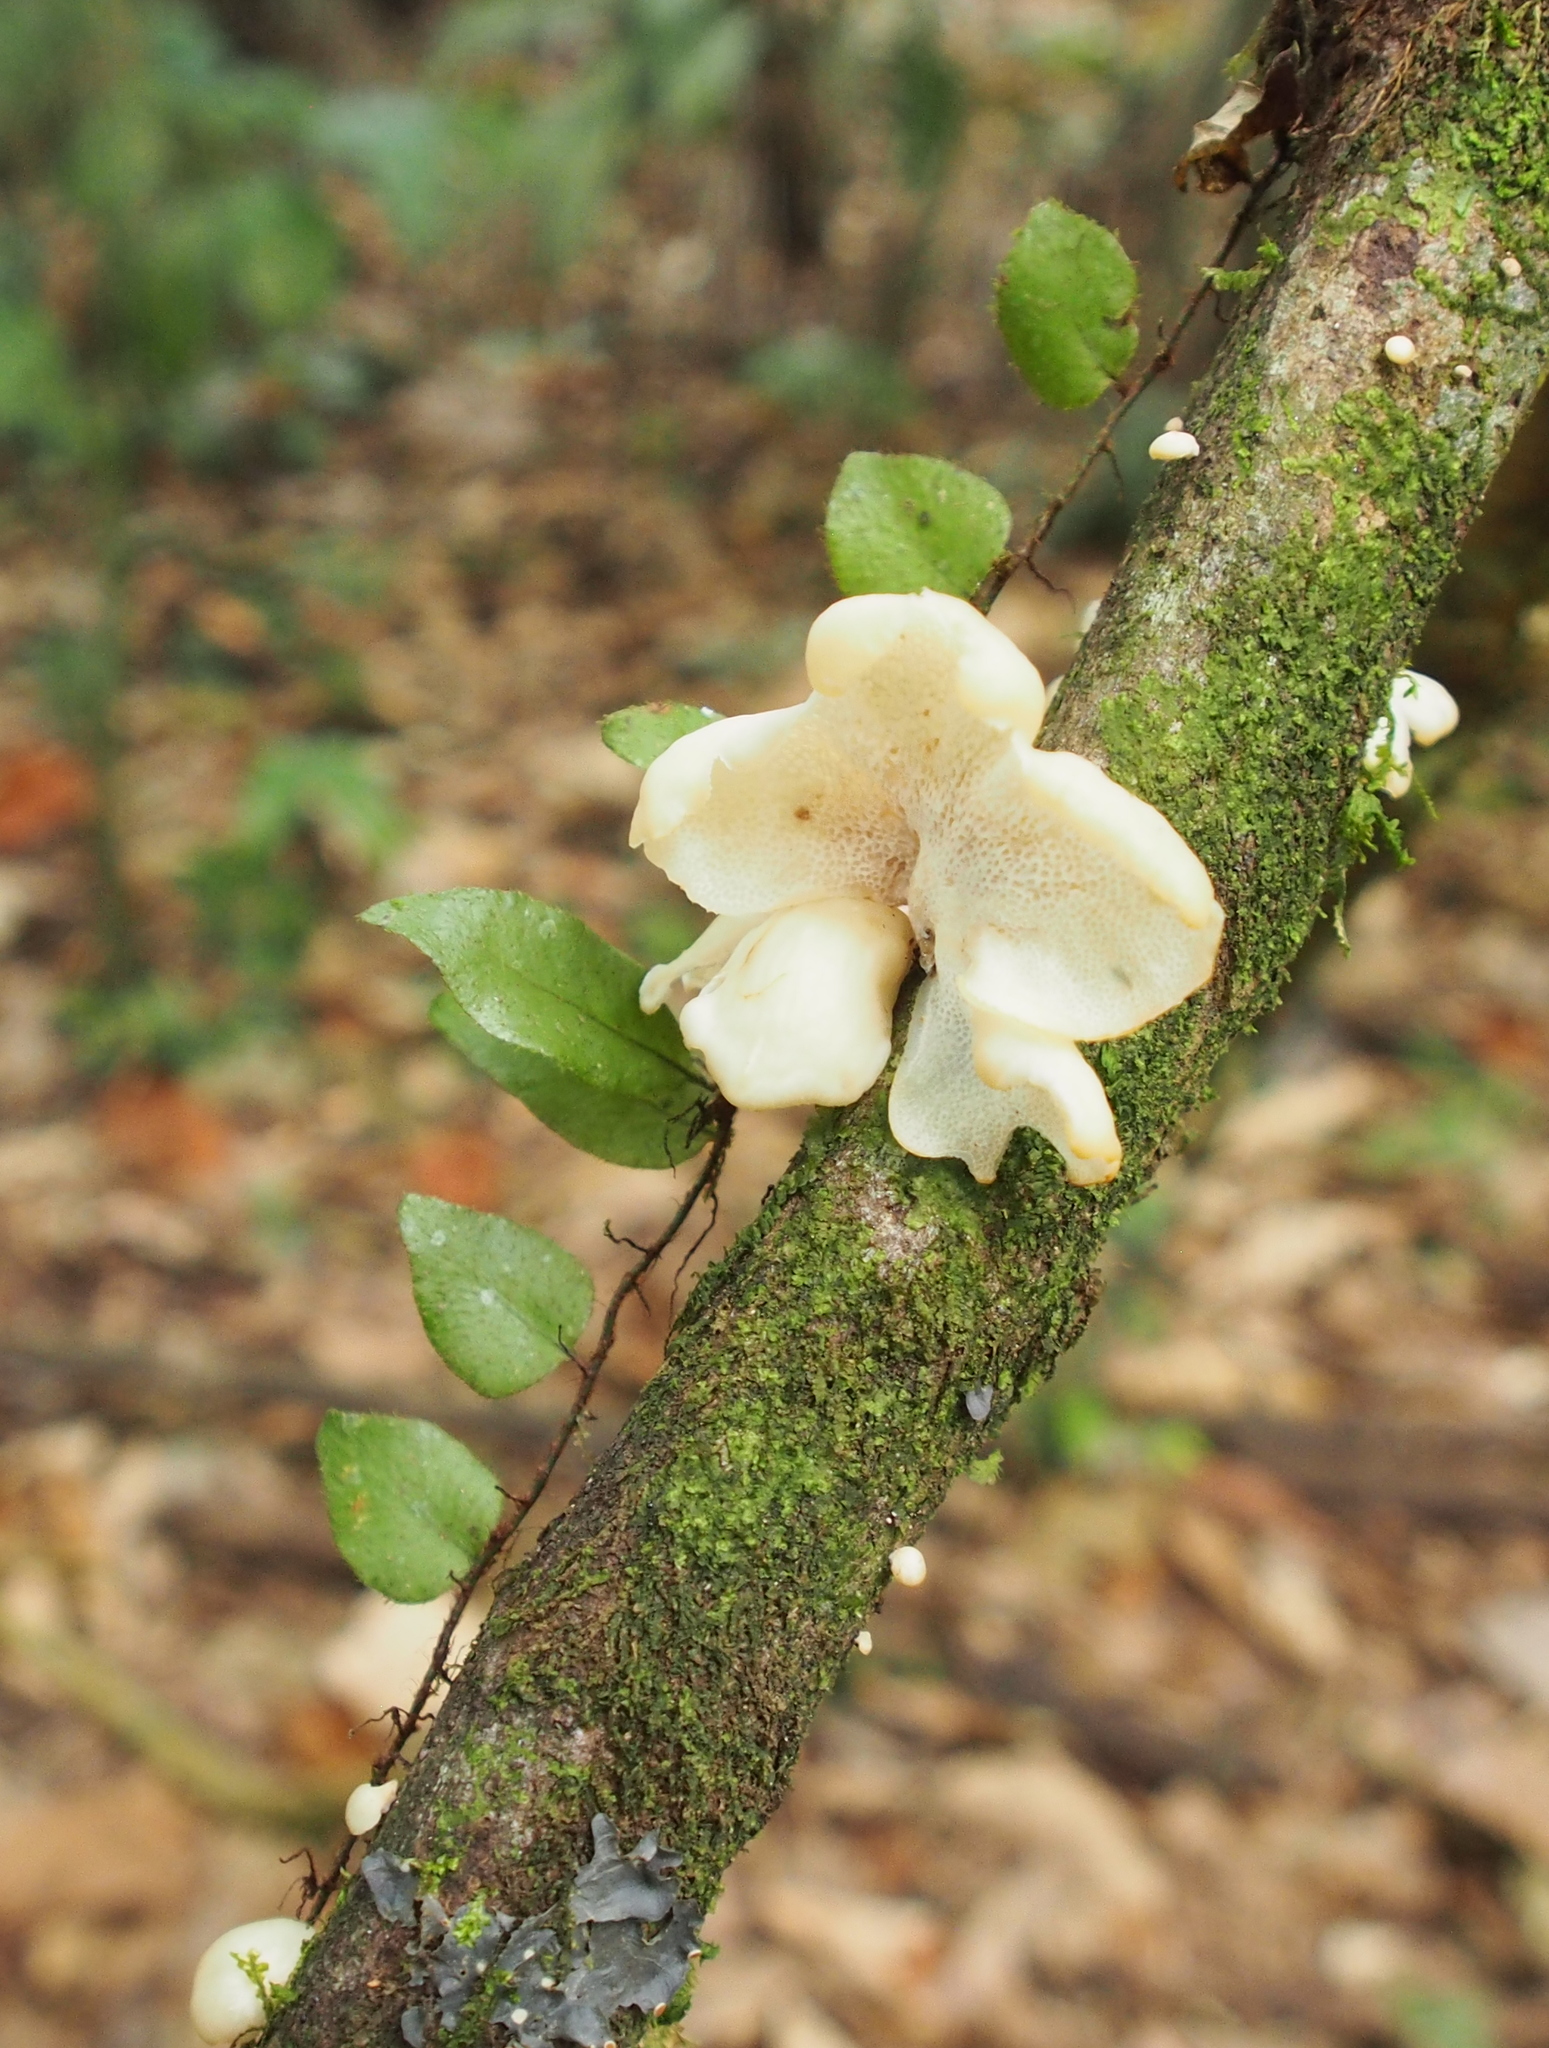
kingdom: Plantae
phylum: Tracheophyta
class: Polypodiopsida
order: Polypodiales
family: Polypodiaceae
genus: Microgramma
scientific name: Microgramma tecta
